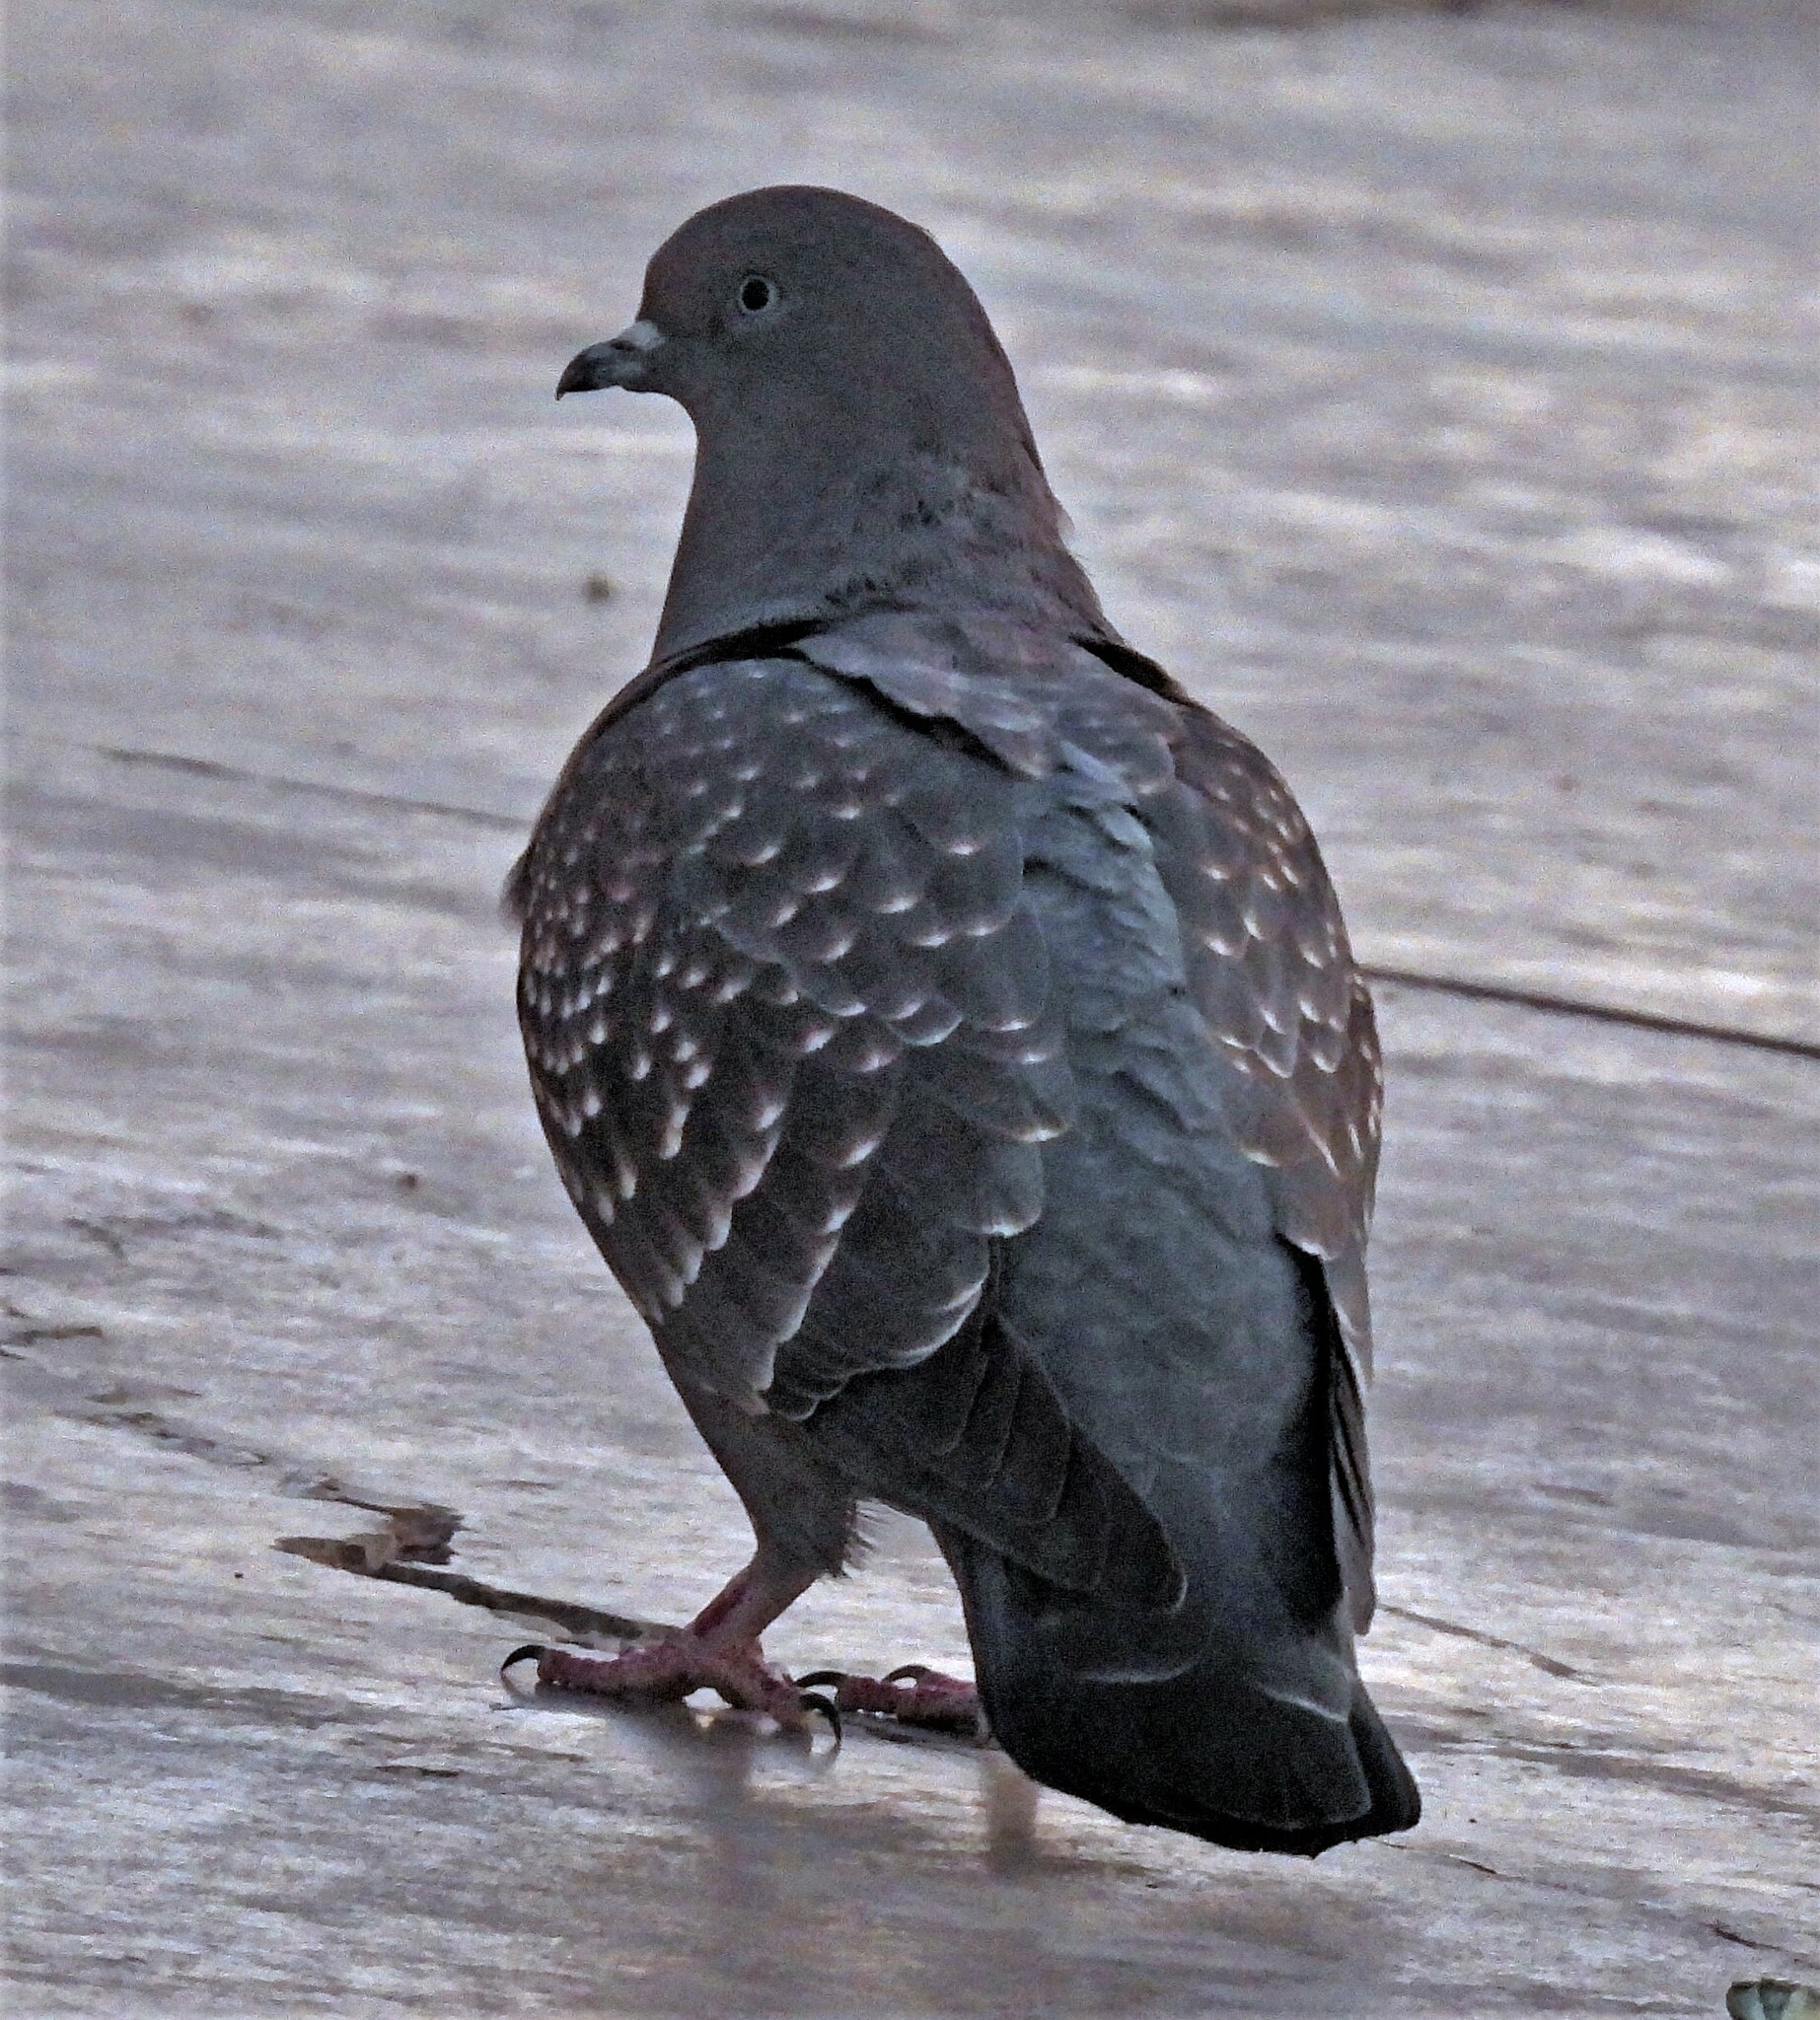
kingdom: Animalia
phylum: Chordata
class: Aves
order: Columbiformes
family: Columbidae
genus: Patagioenas
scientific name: Patagioenas maculosa
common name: Spot-winged pigeon
